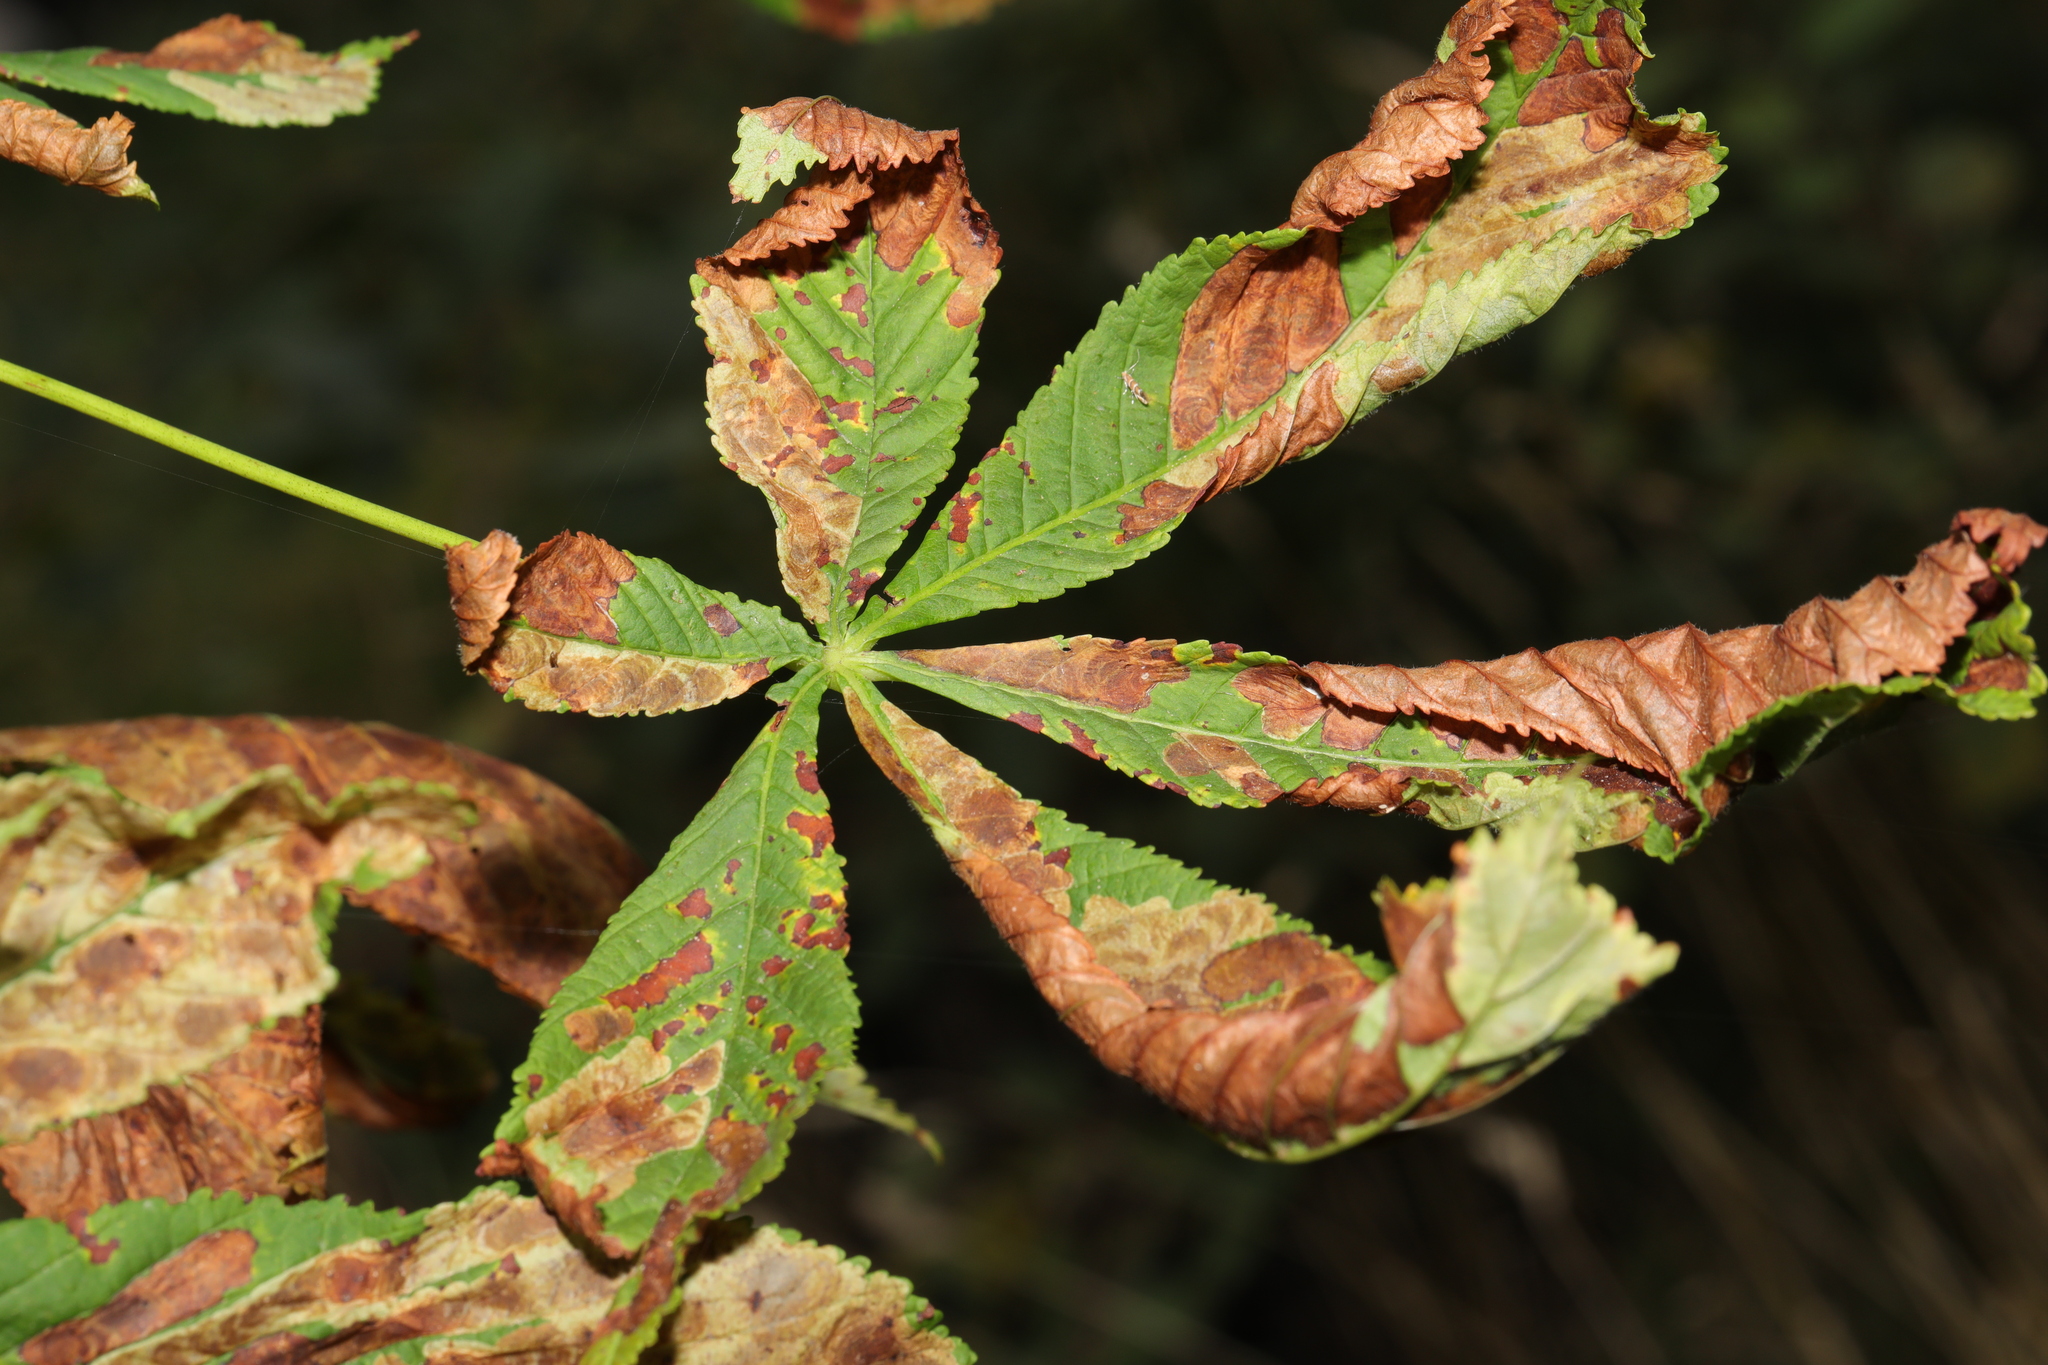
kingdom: Plantae
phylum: Tracheophyta
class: Magnoliopsida
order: Sapindales
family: Sapindaceae
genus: Aesculus
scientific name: Aesculus hippocastanum
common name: Horse-chestnut
